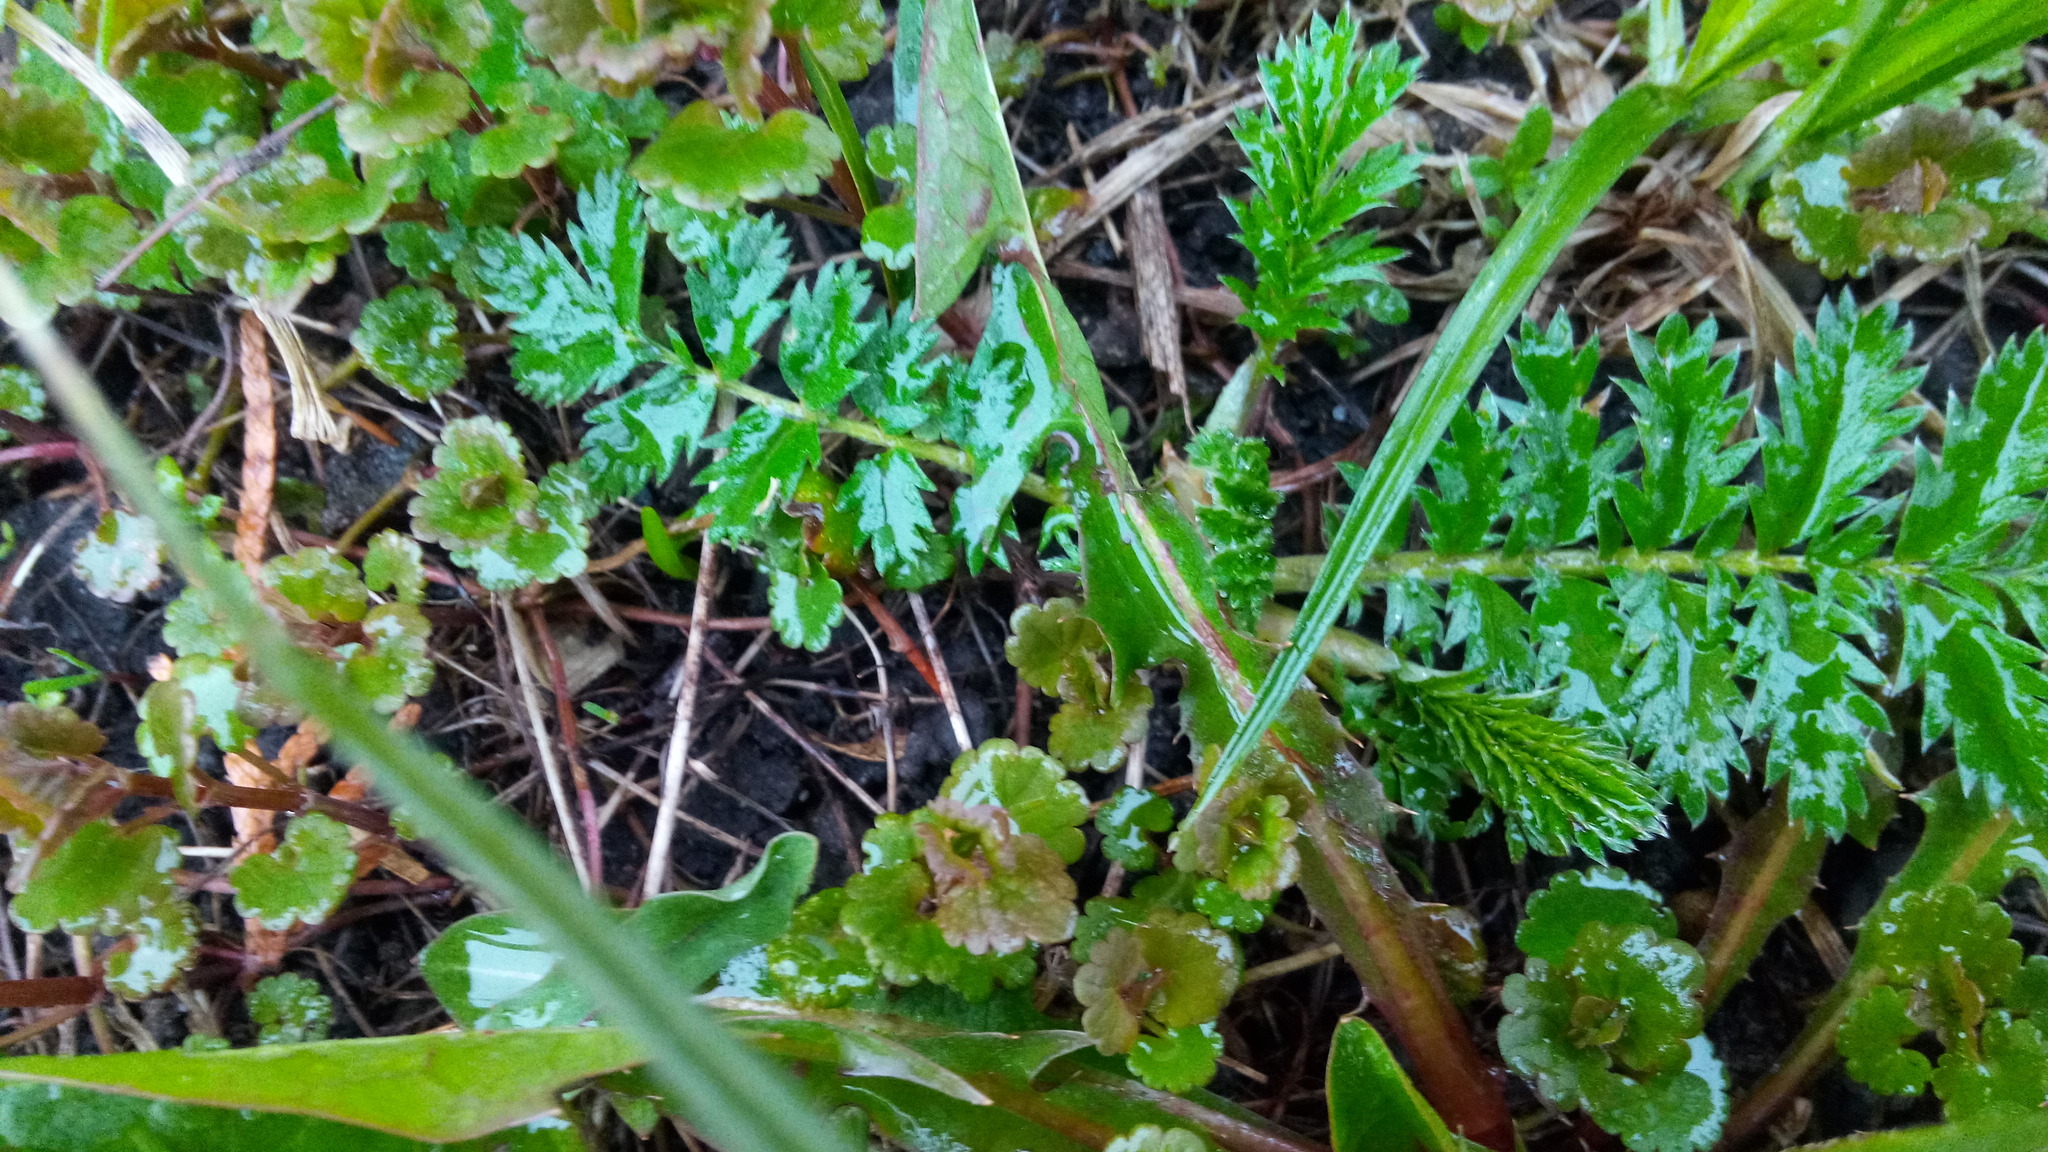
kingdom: Plantae
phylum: Tracheophyta
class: Magnoliopsida
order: Rosales
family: Rosaceae
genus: Argentina
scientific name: Argentina anserina
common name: Common silverweed
